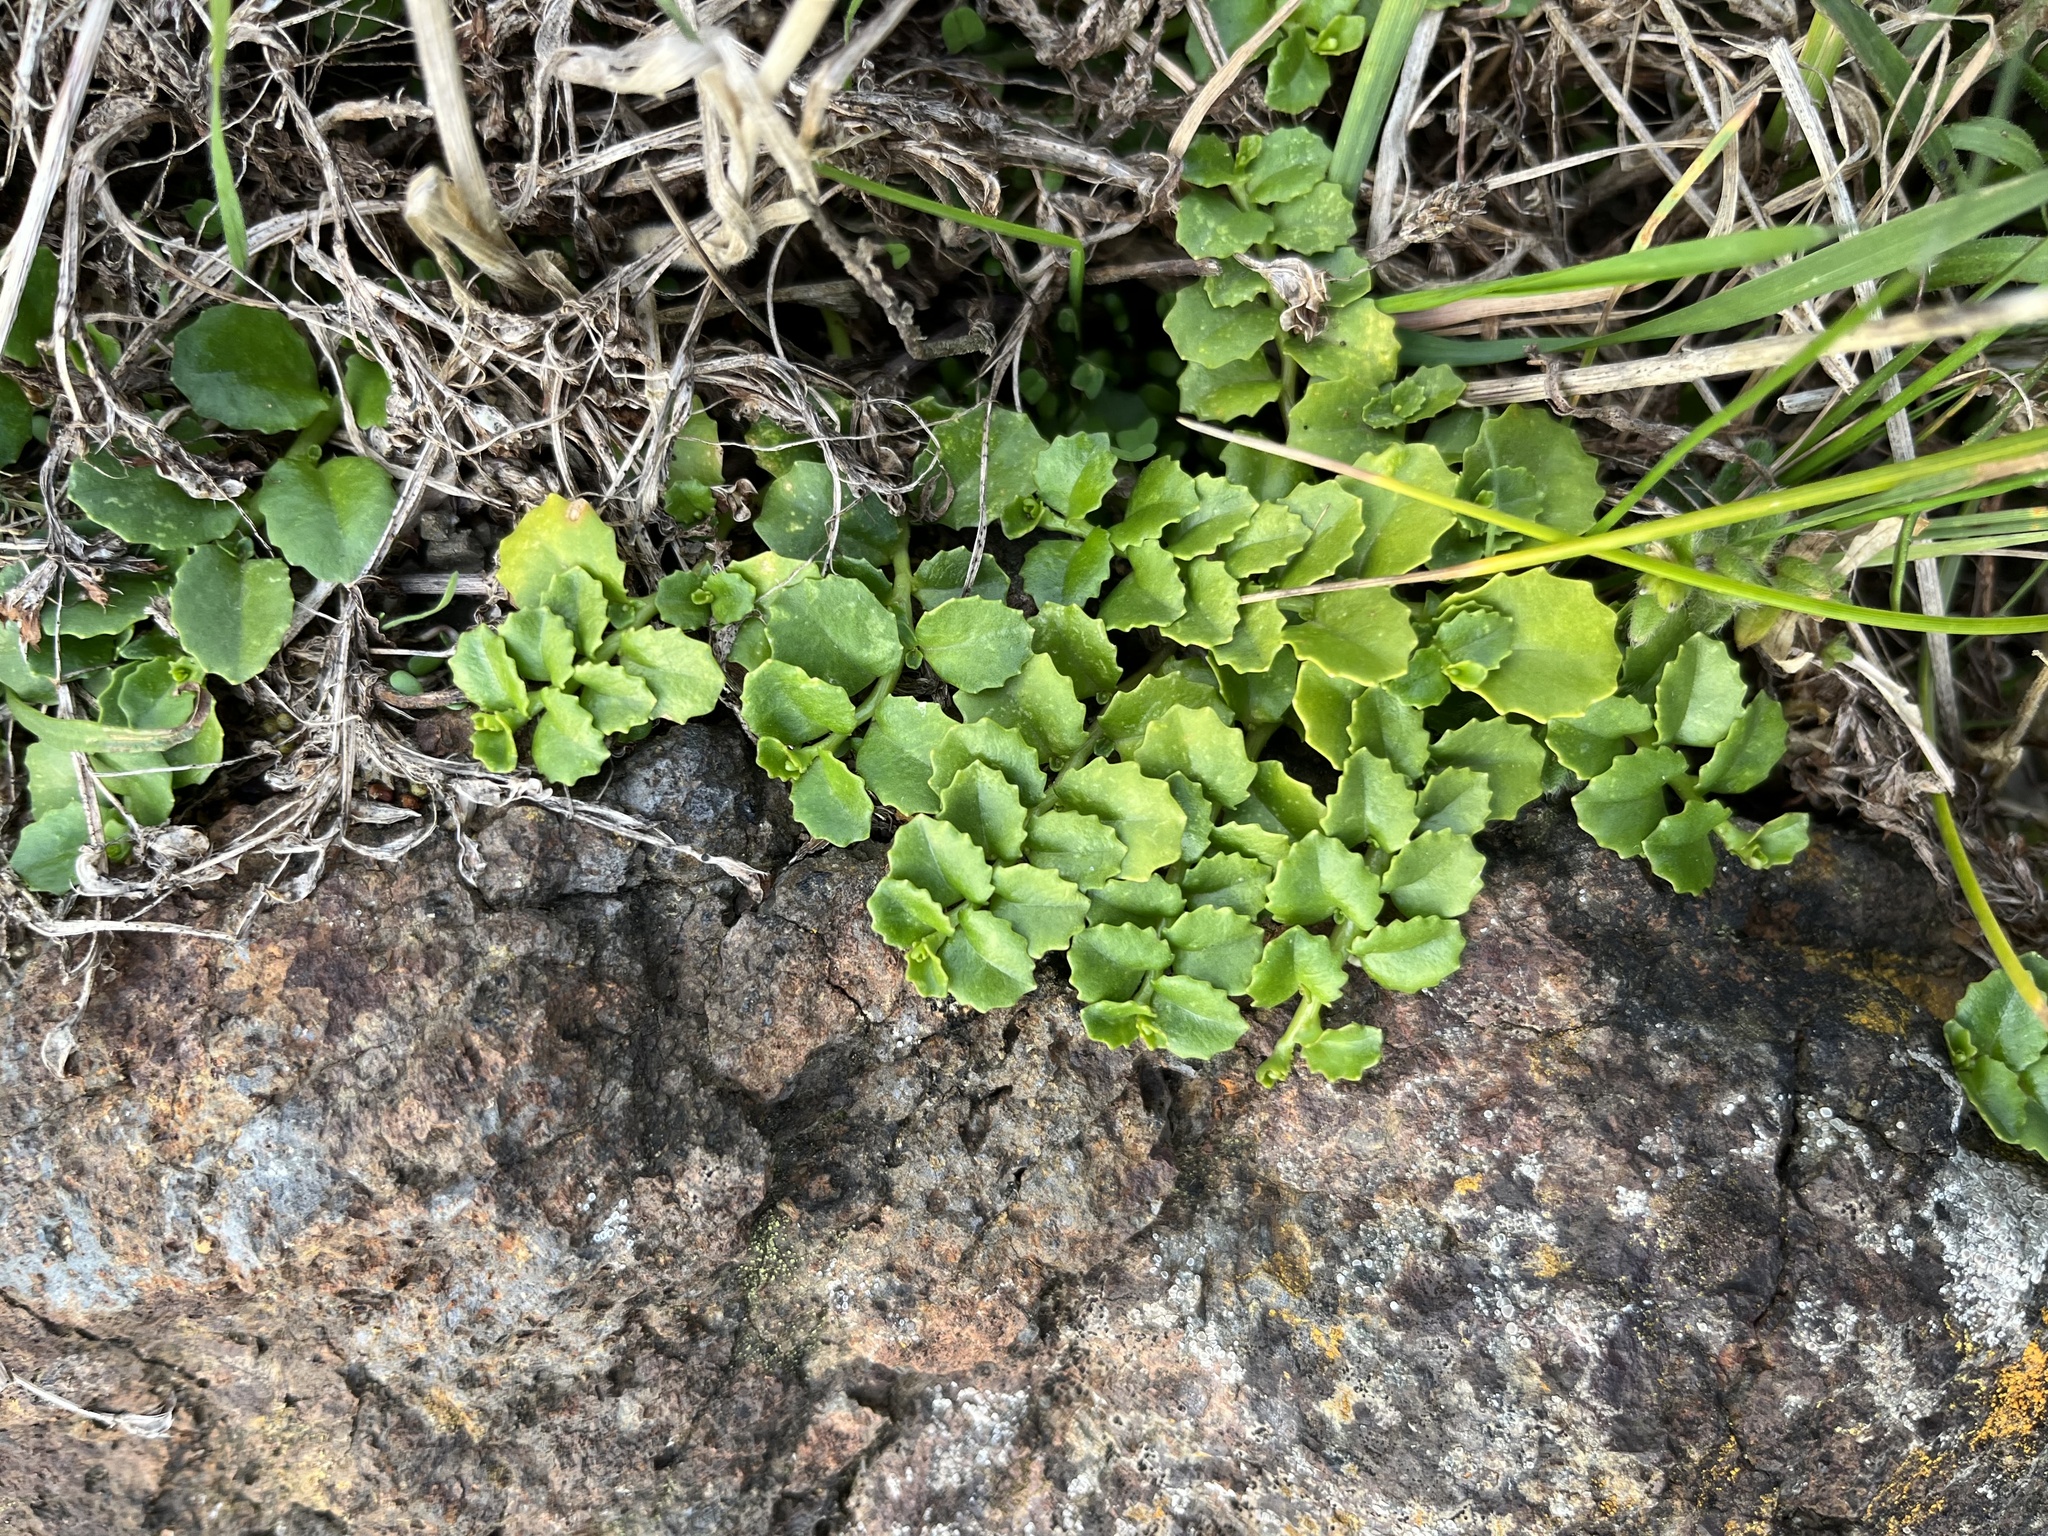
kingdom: Plantae
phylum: Tracheophyta
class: Magnoliopsida
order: Asterales
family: Campanulaceae
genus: Lobelia
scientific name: Lobelia arenaria
